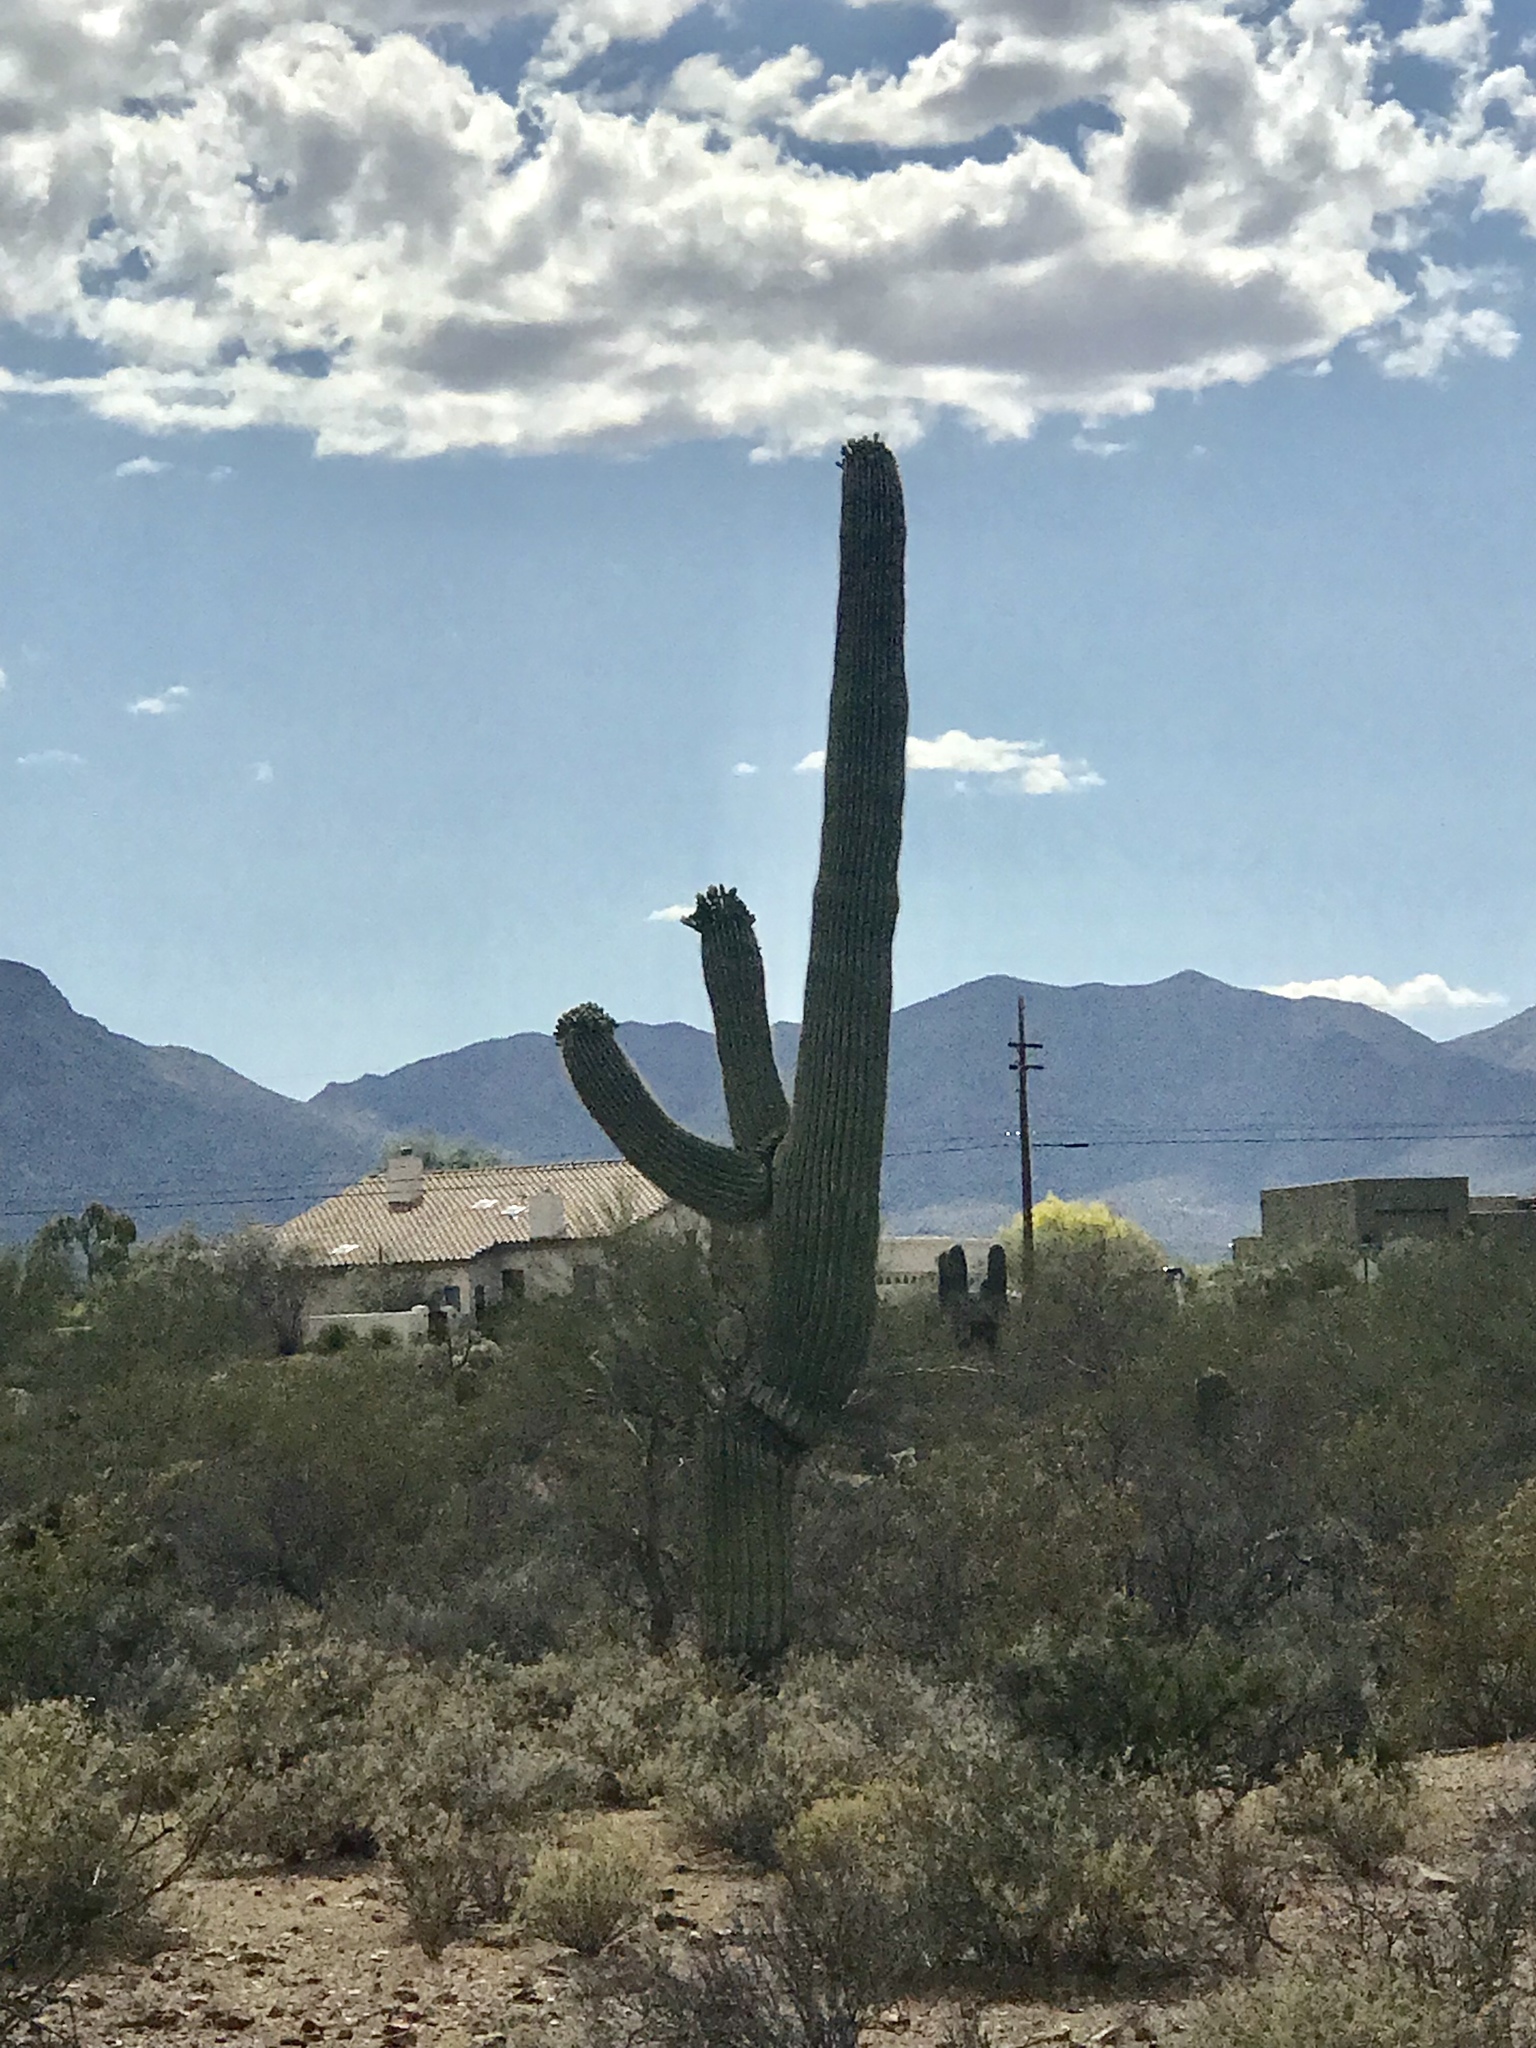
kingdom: Plantae
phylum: Tracheophyta
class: Magnoliopsida
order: Caryophyllales
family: Cactaceae
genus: Carnegiea
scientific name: Carnegiea gigantea
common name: Saguaro
